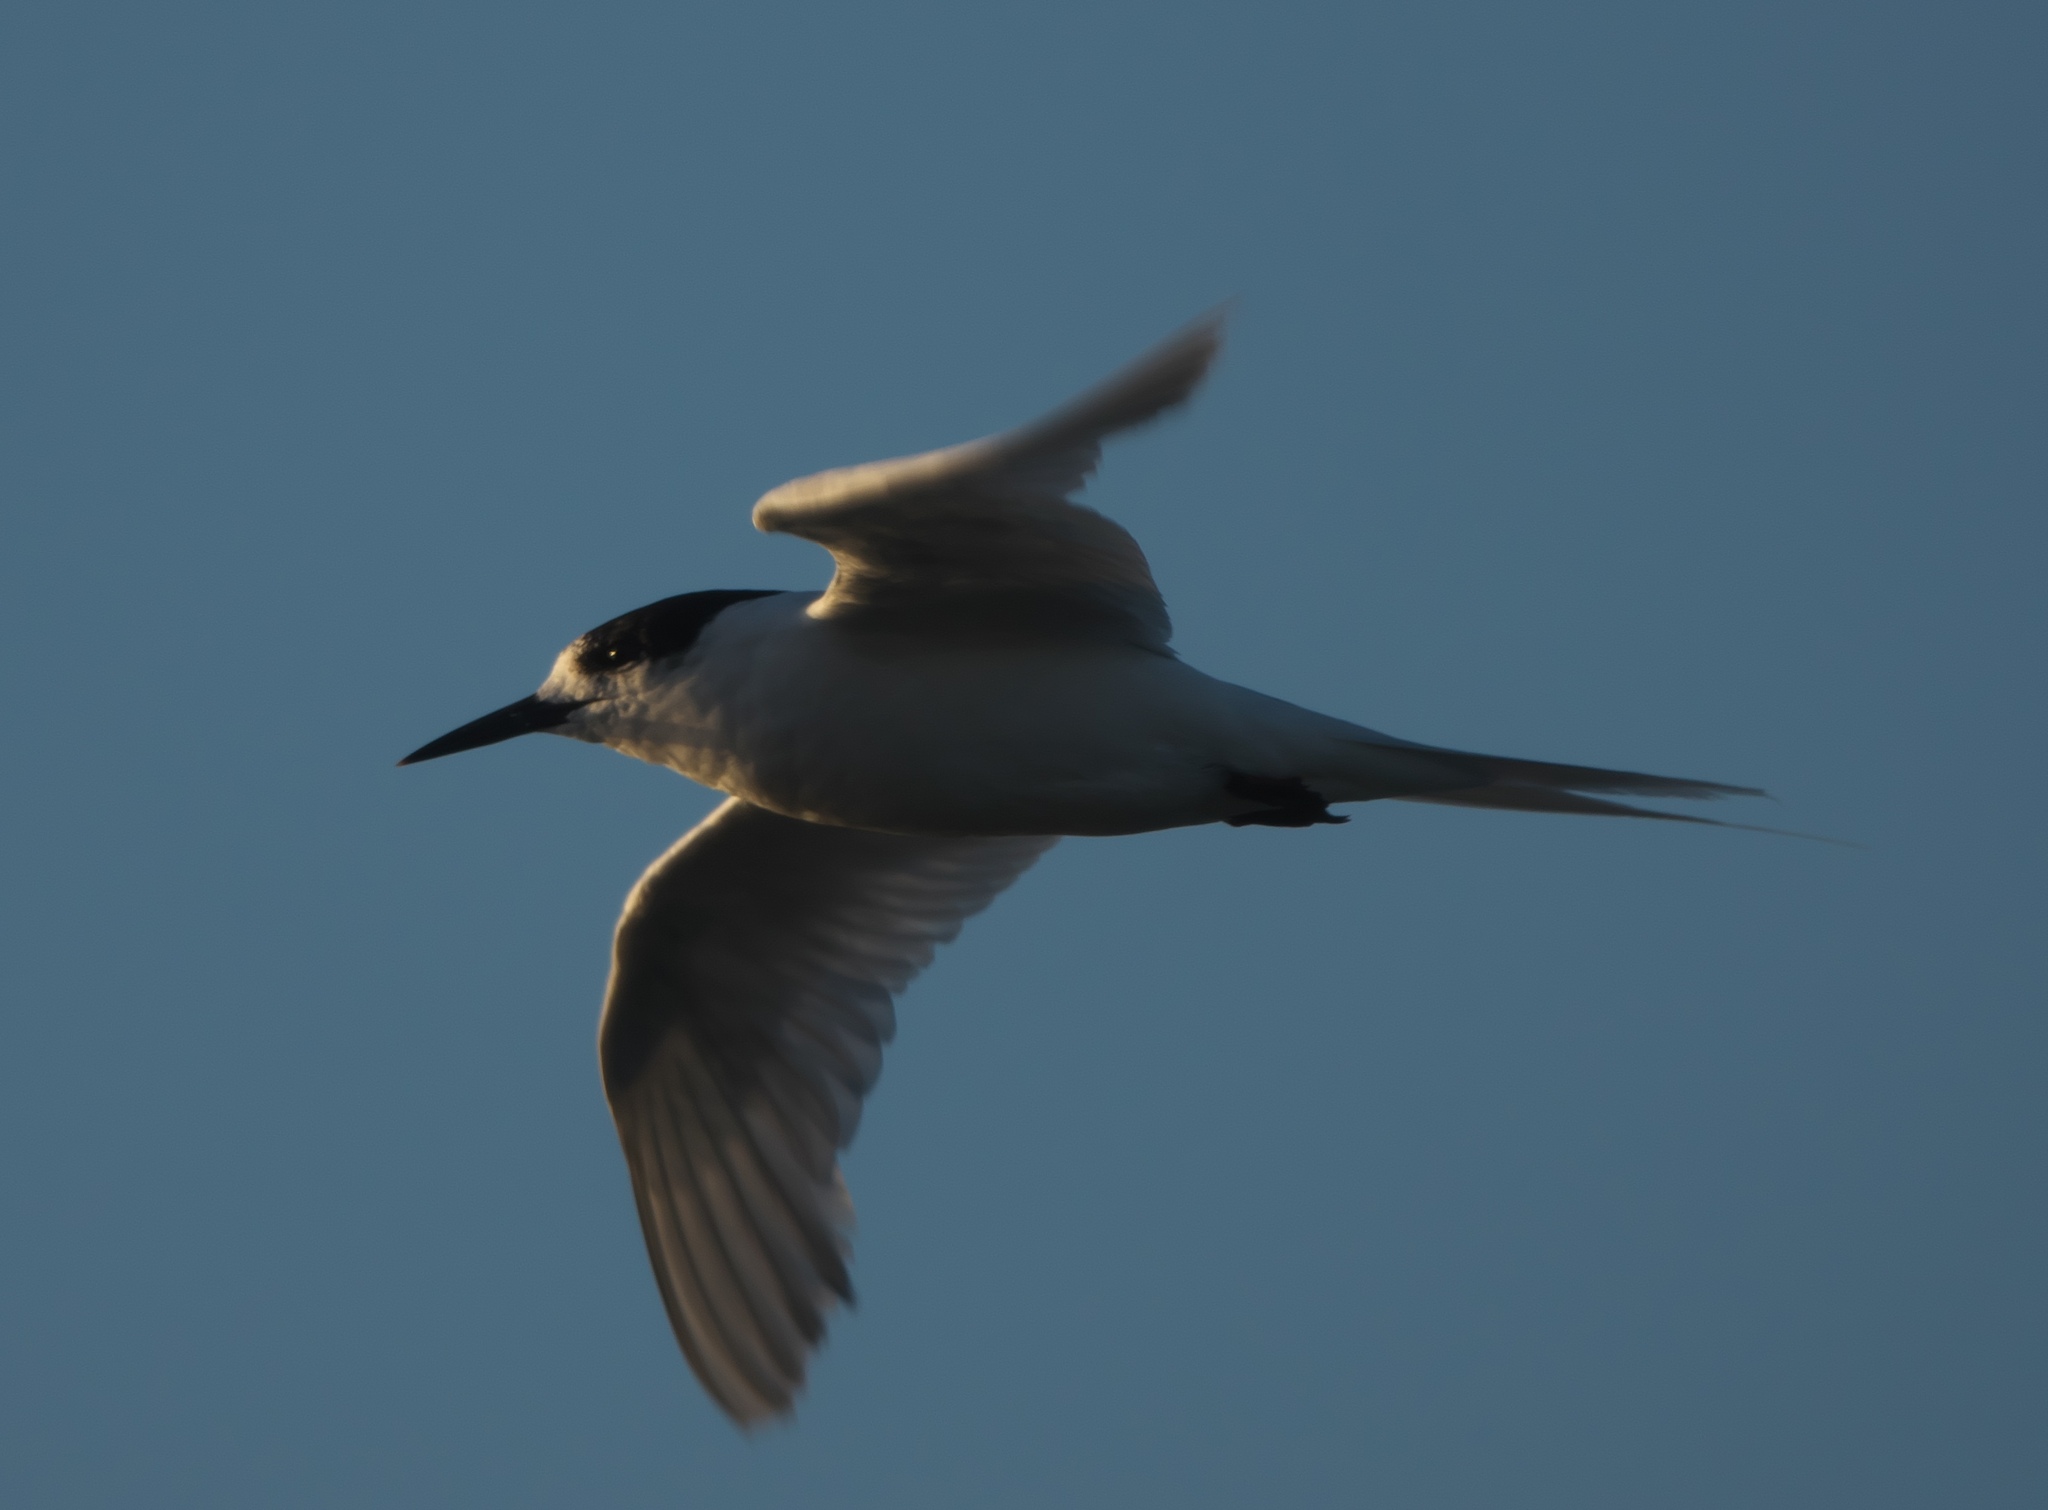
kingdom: Animalia
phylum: Chordata
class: Aves
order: Charadriiformes
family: Laridae
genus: Sterna
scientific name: Sterna striata
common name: White-fronted tern
